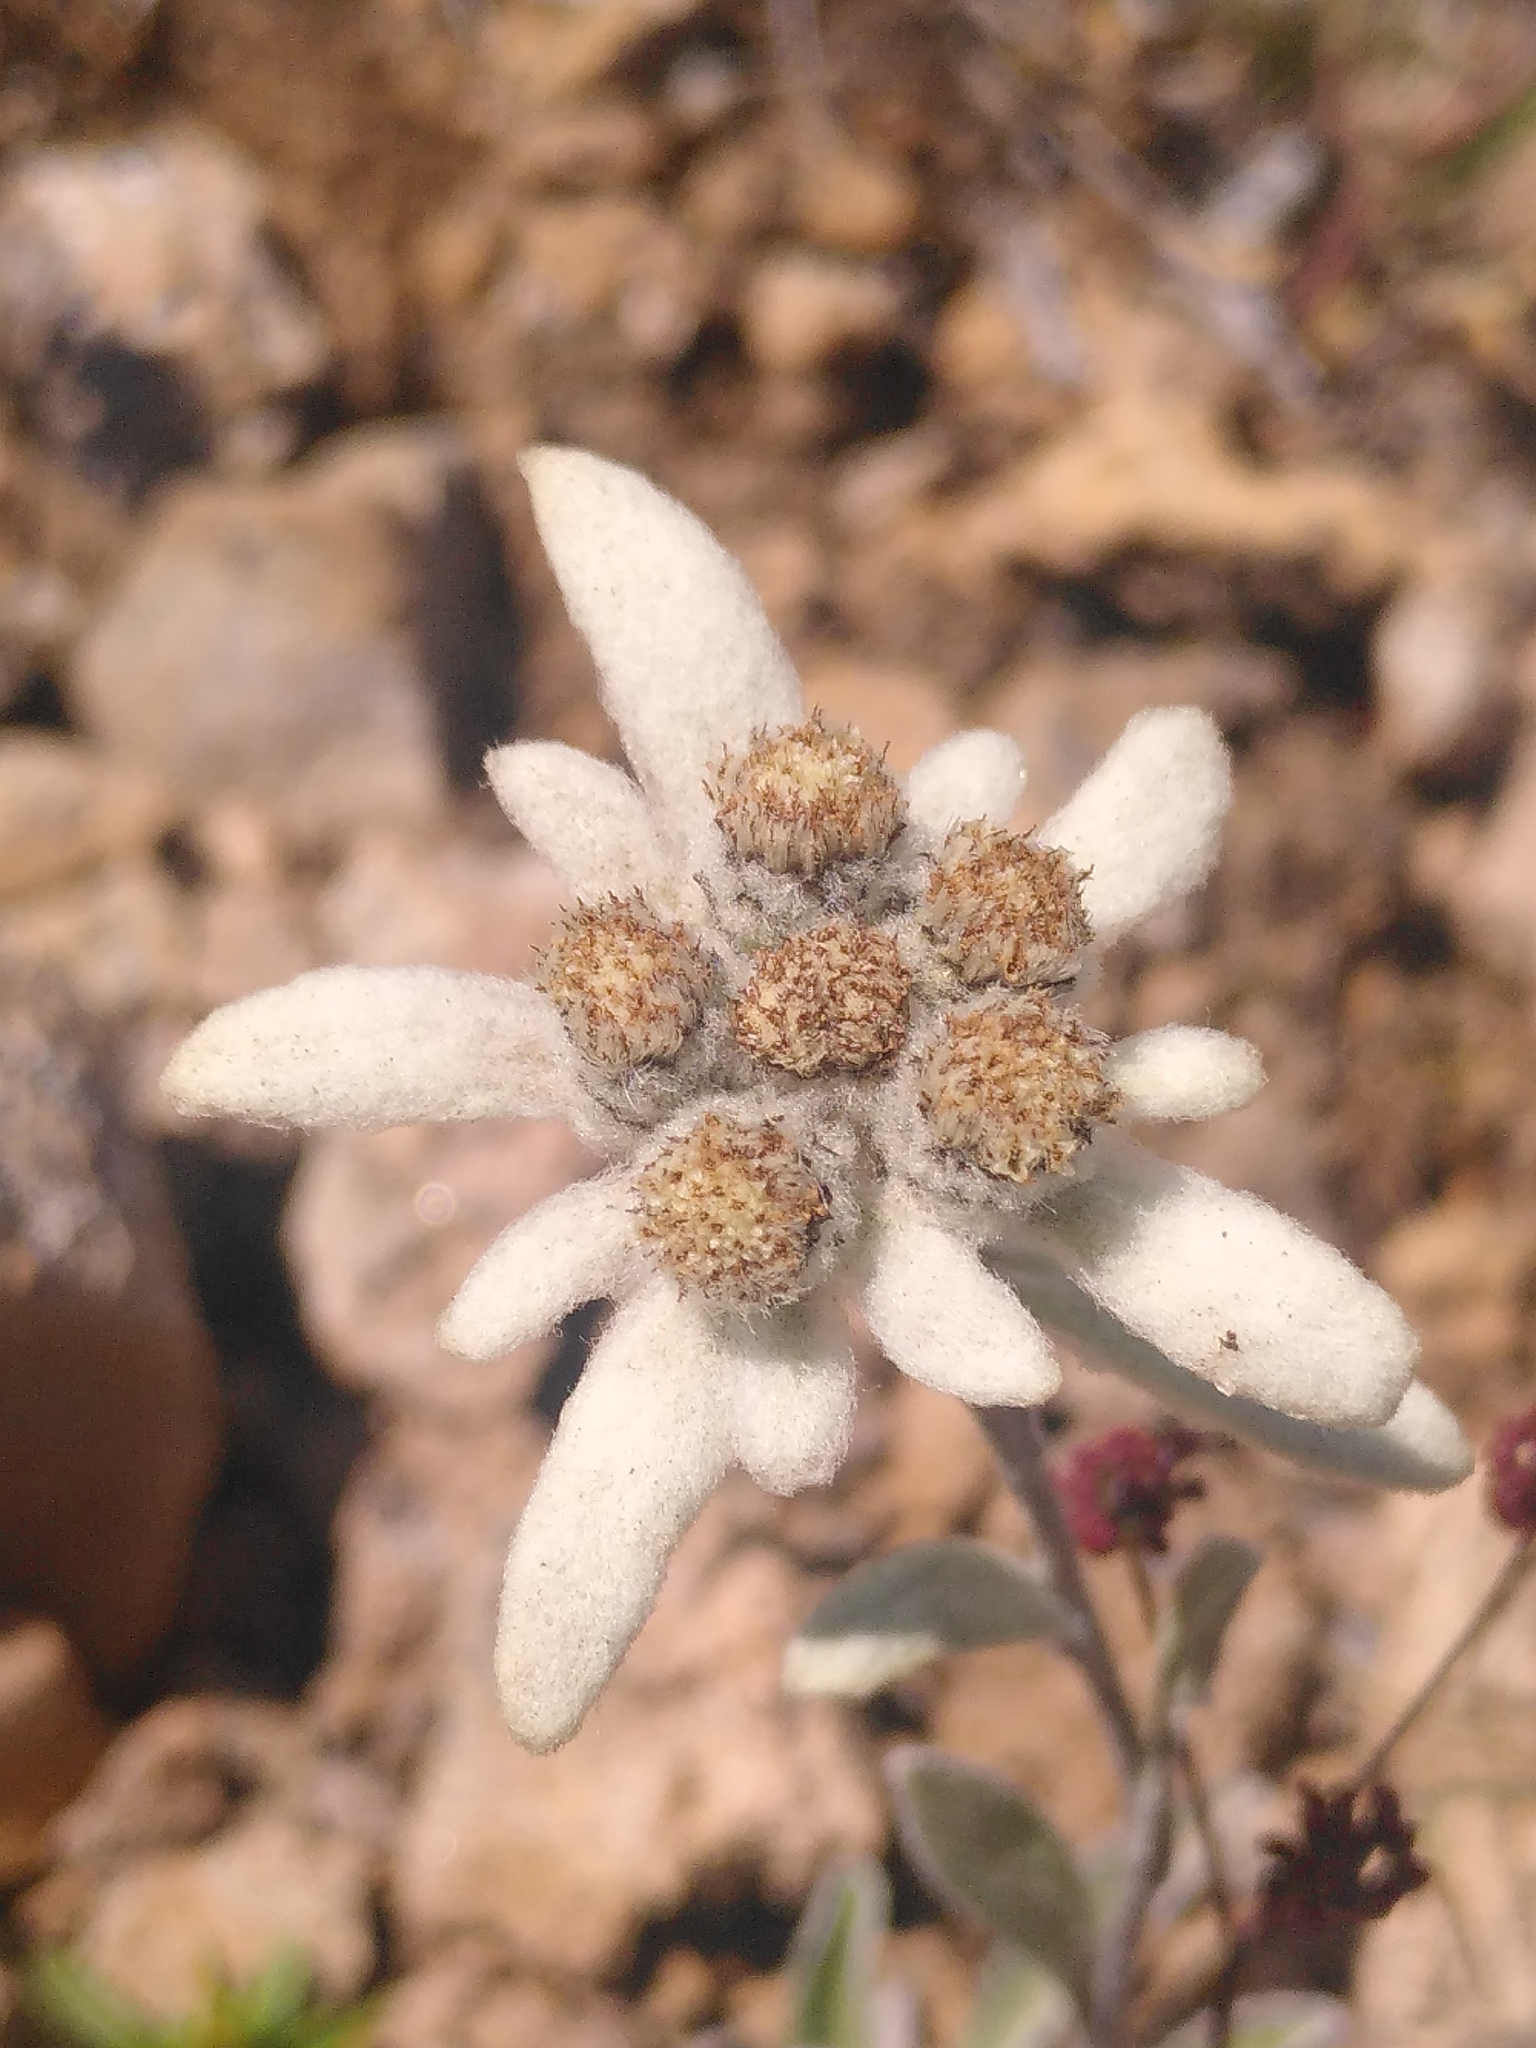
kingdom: Plantae
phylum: Tracheophyta
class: Magnoliopsida
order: Asterales
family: Asteraceae
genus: Leontopodium
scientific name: Leontopodium nivale
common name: Edelweiss
